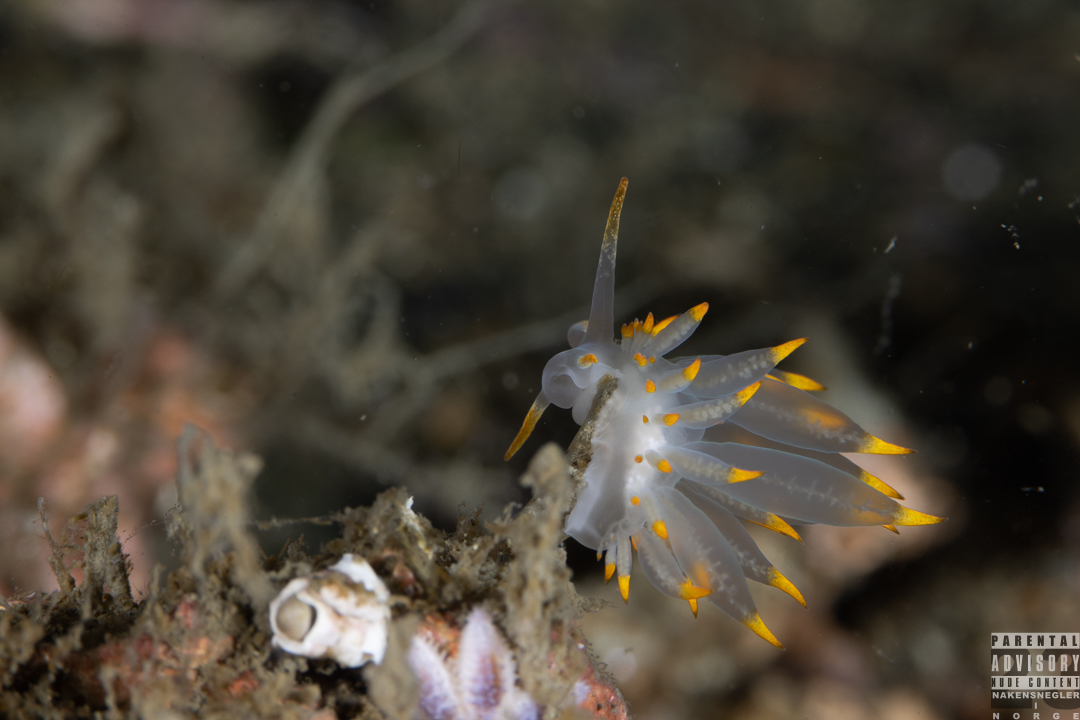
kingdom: Animalia
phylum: Mollusca
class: Gastropoda
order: Nudibranchia
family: Eubranchidae
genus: Amphorina
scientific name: Amphorina farrani
